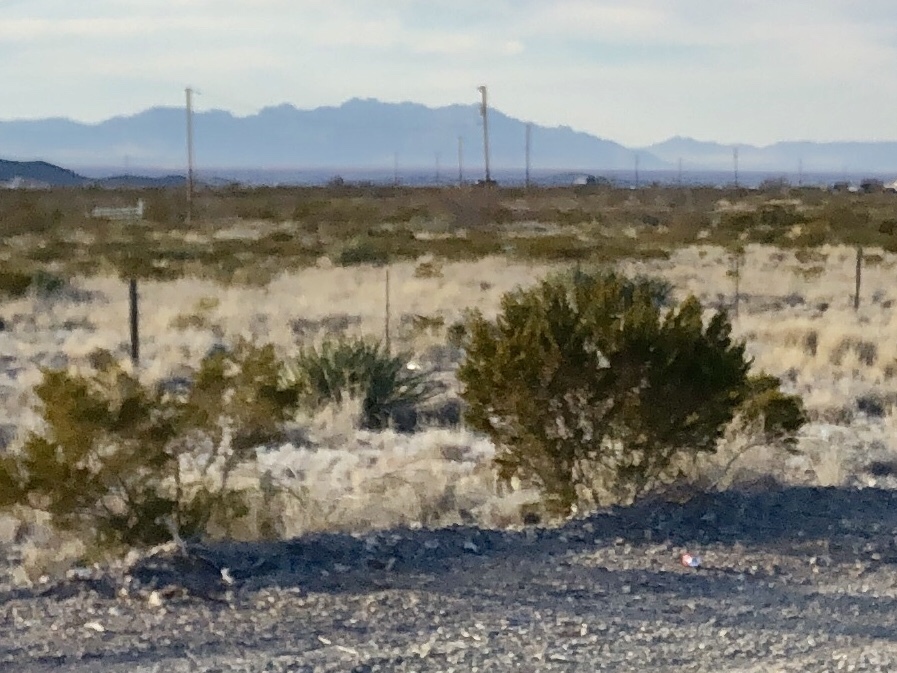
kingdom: Plantae
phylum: Tracheophyta
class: Magnoliopsida
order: Zygophyllales
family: Zygophyllaceae
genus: Larrea
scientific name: Larrea tridentata
